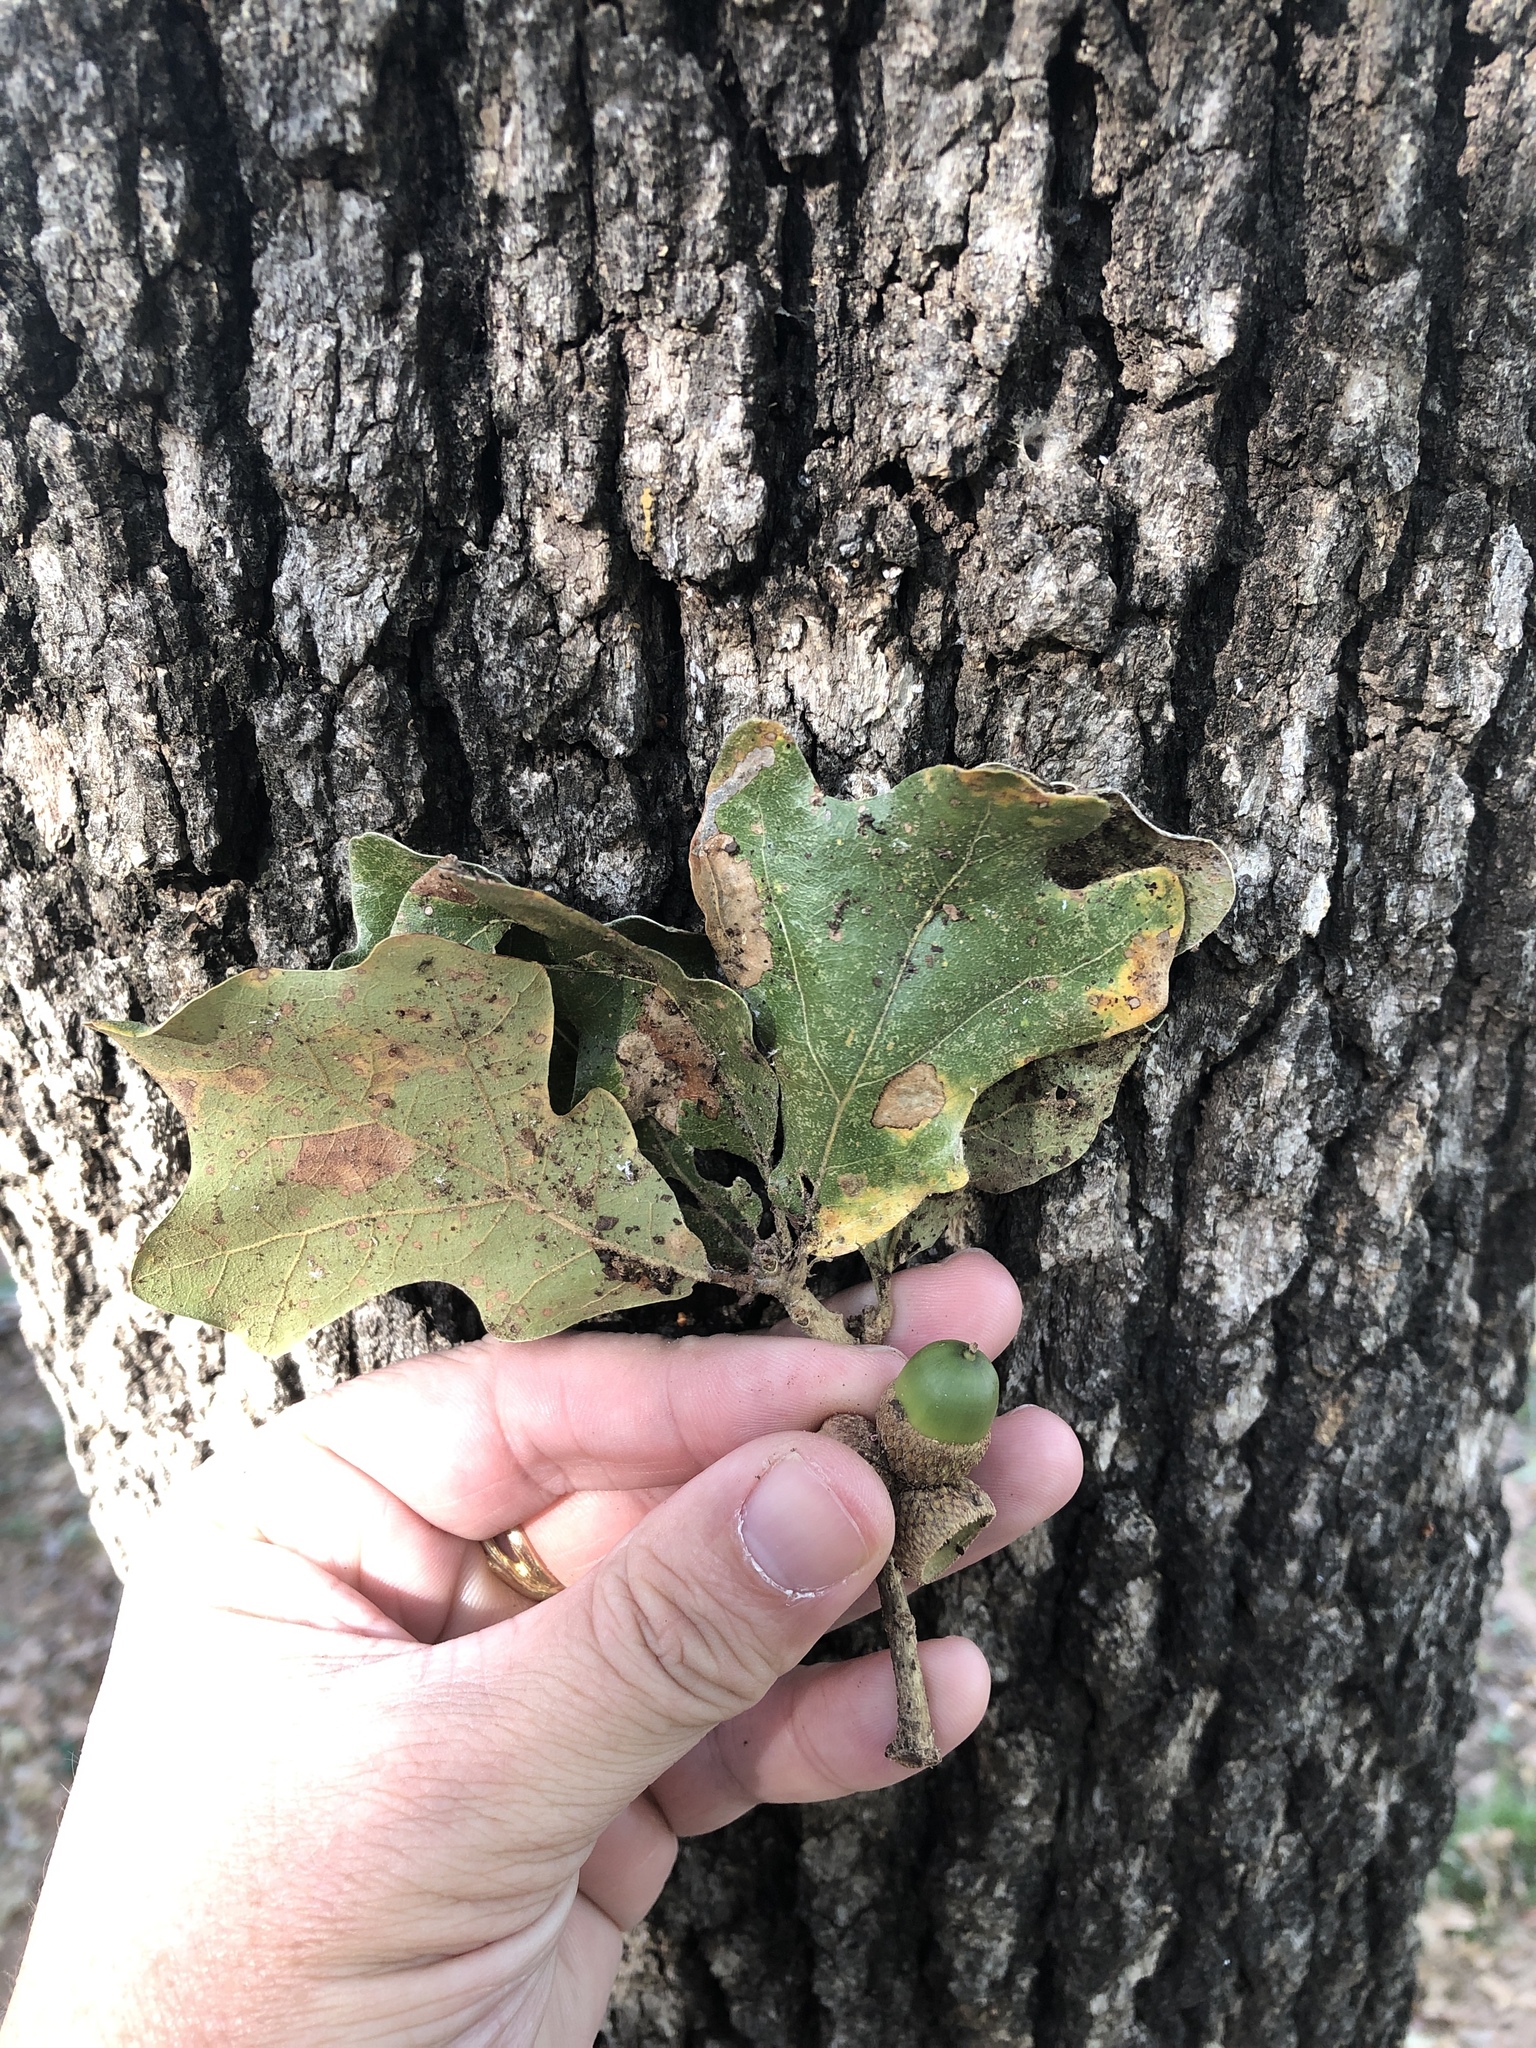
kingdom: Plantae
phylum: Tracheophyta
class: Magnoliopsida
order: Fagales
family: Fagaceae
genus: Quercus
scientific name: Quercus stellata
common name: Post oak
